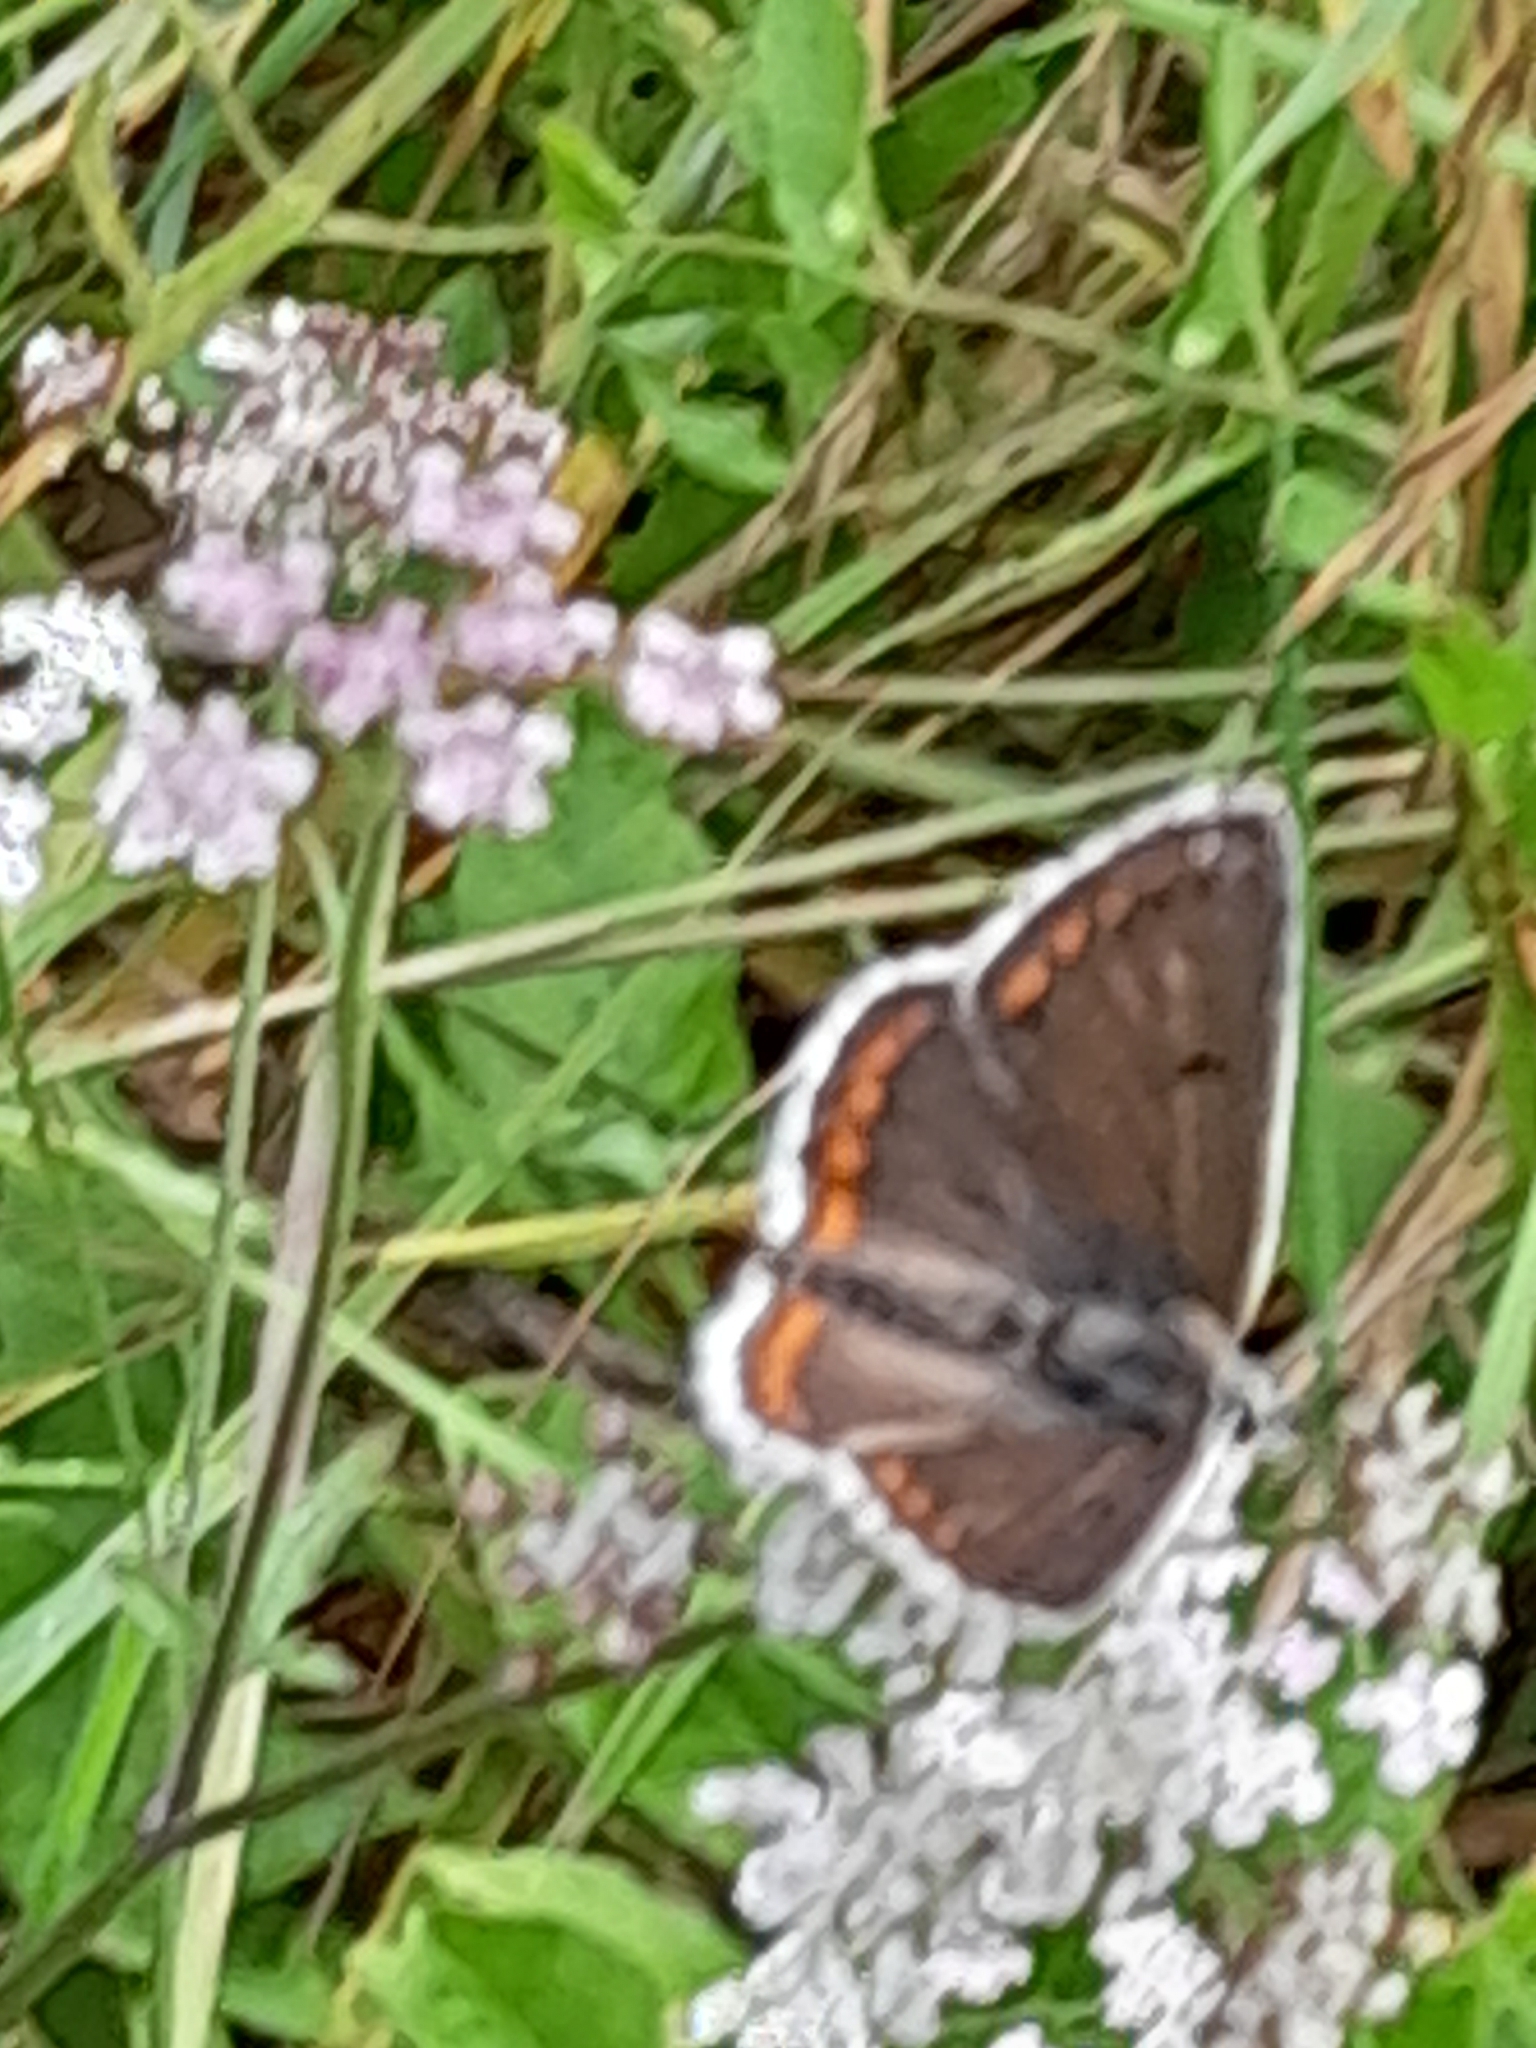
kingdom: Animalia
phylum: Arthropoda
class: Insecta
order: Lepidoptera
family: Lycaenidae
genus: Aricia
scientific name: Aricia agestis
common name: Brown argus
